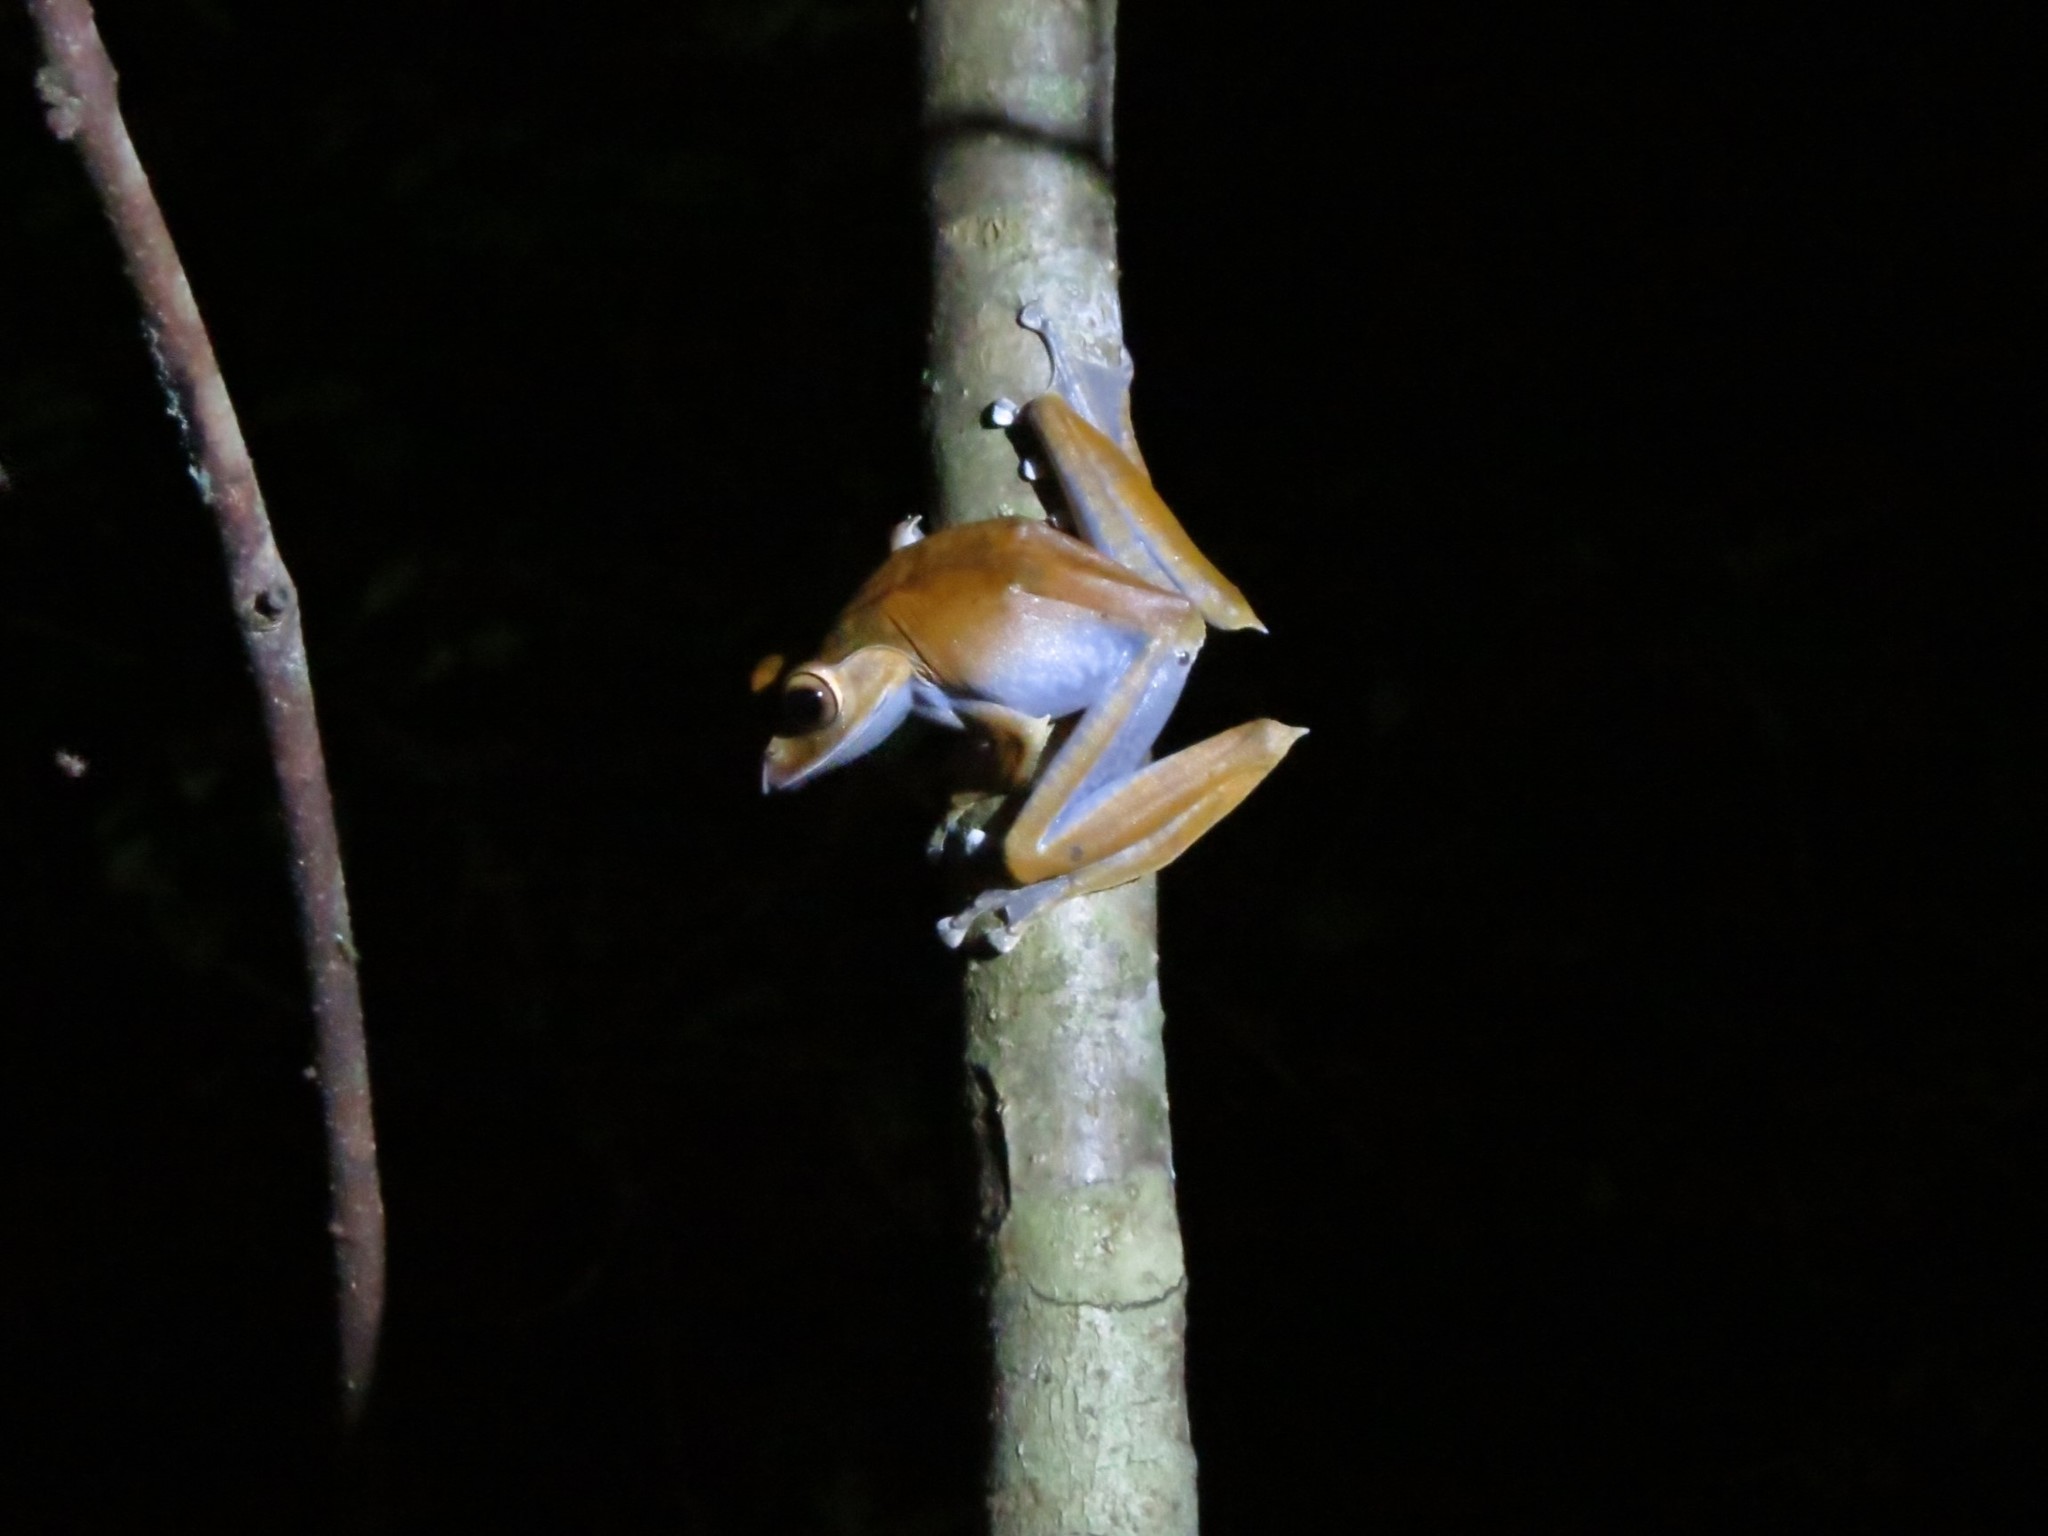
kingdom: Animalia
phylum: Chordata
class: Amphibia
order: Anura
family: Mantellidae
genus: Boophis
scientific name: Boophis madagascariensis
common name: Madagascar bright-eyed frog
